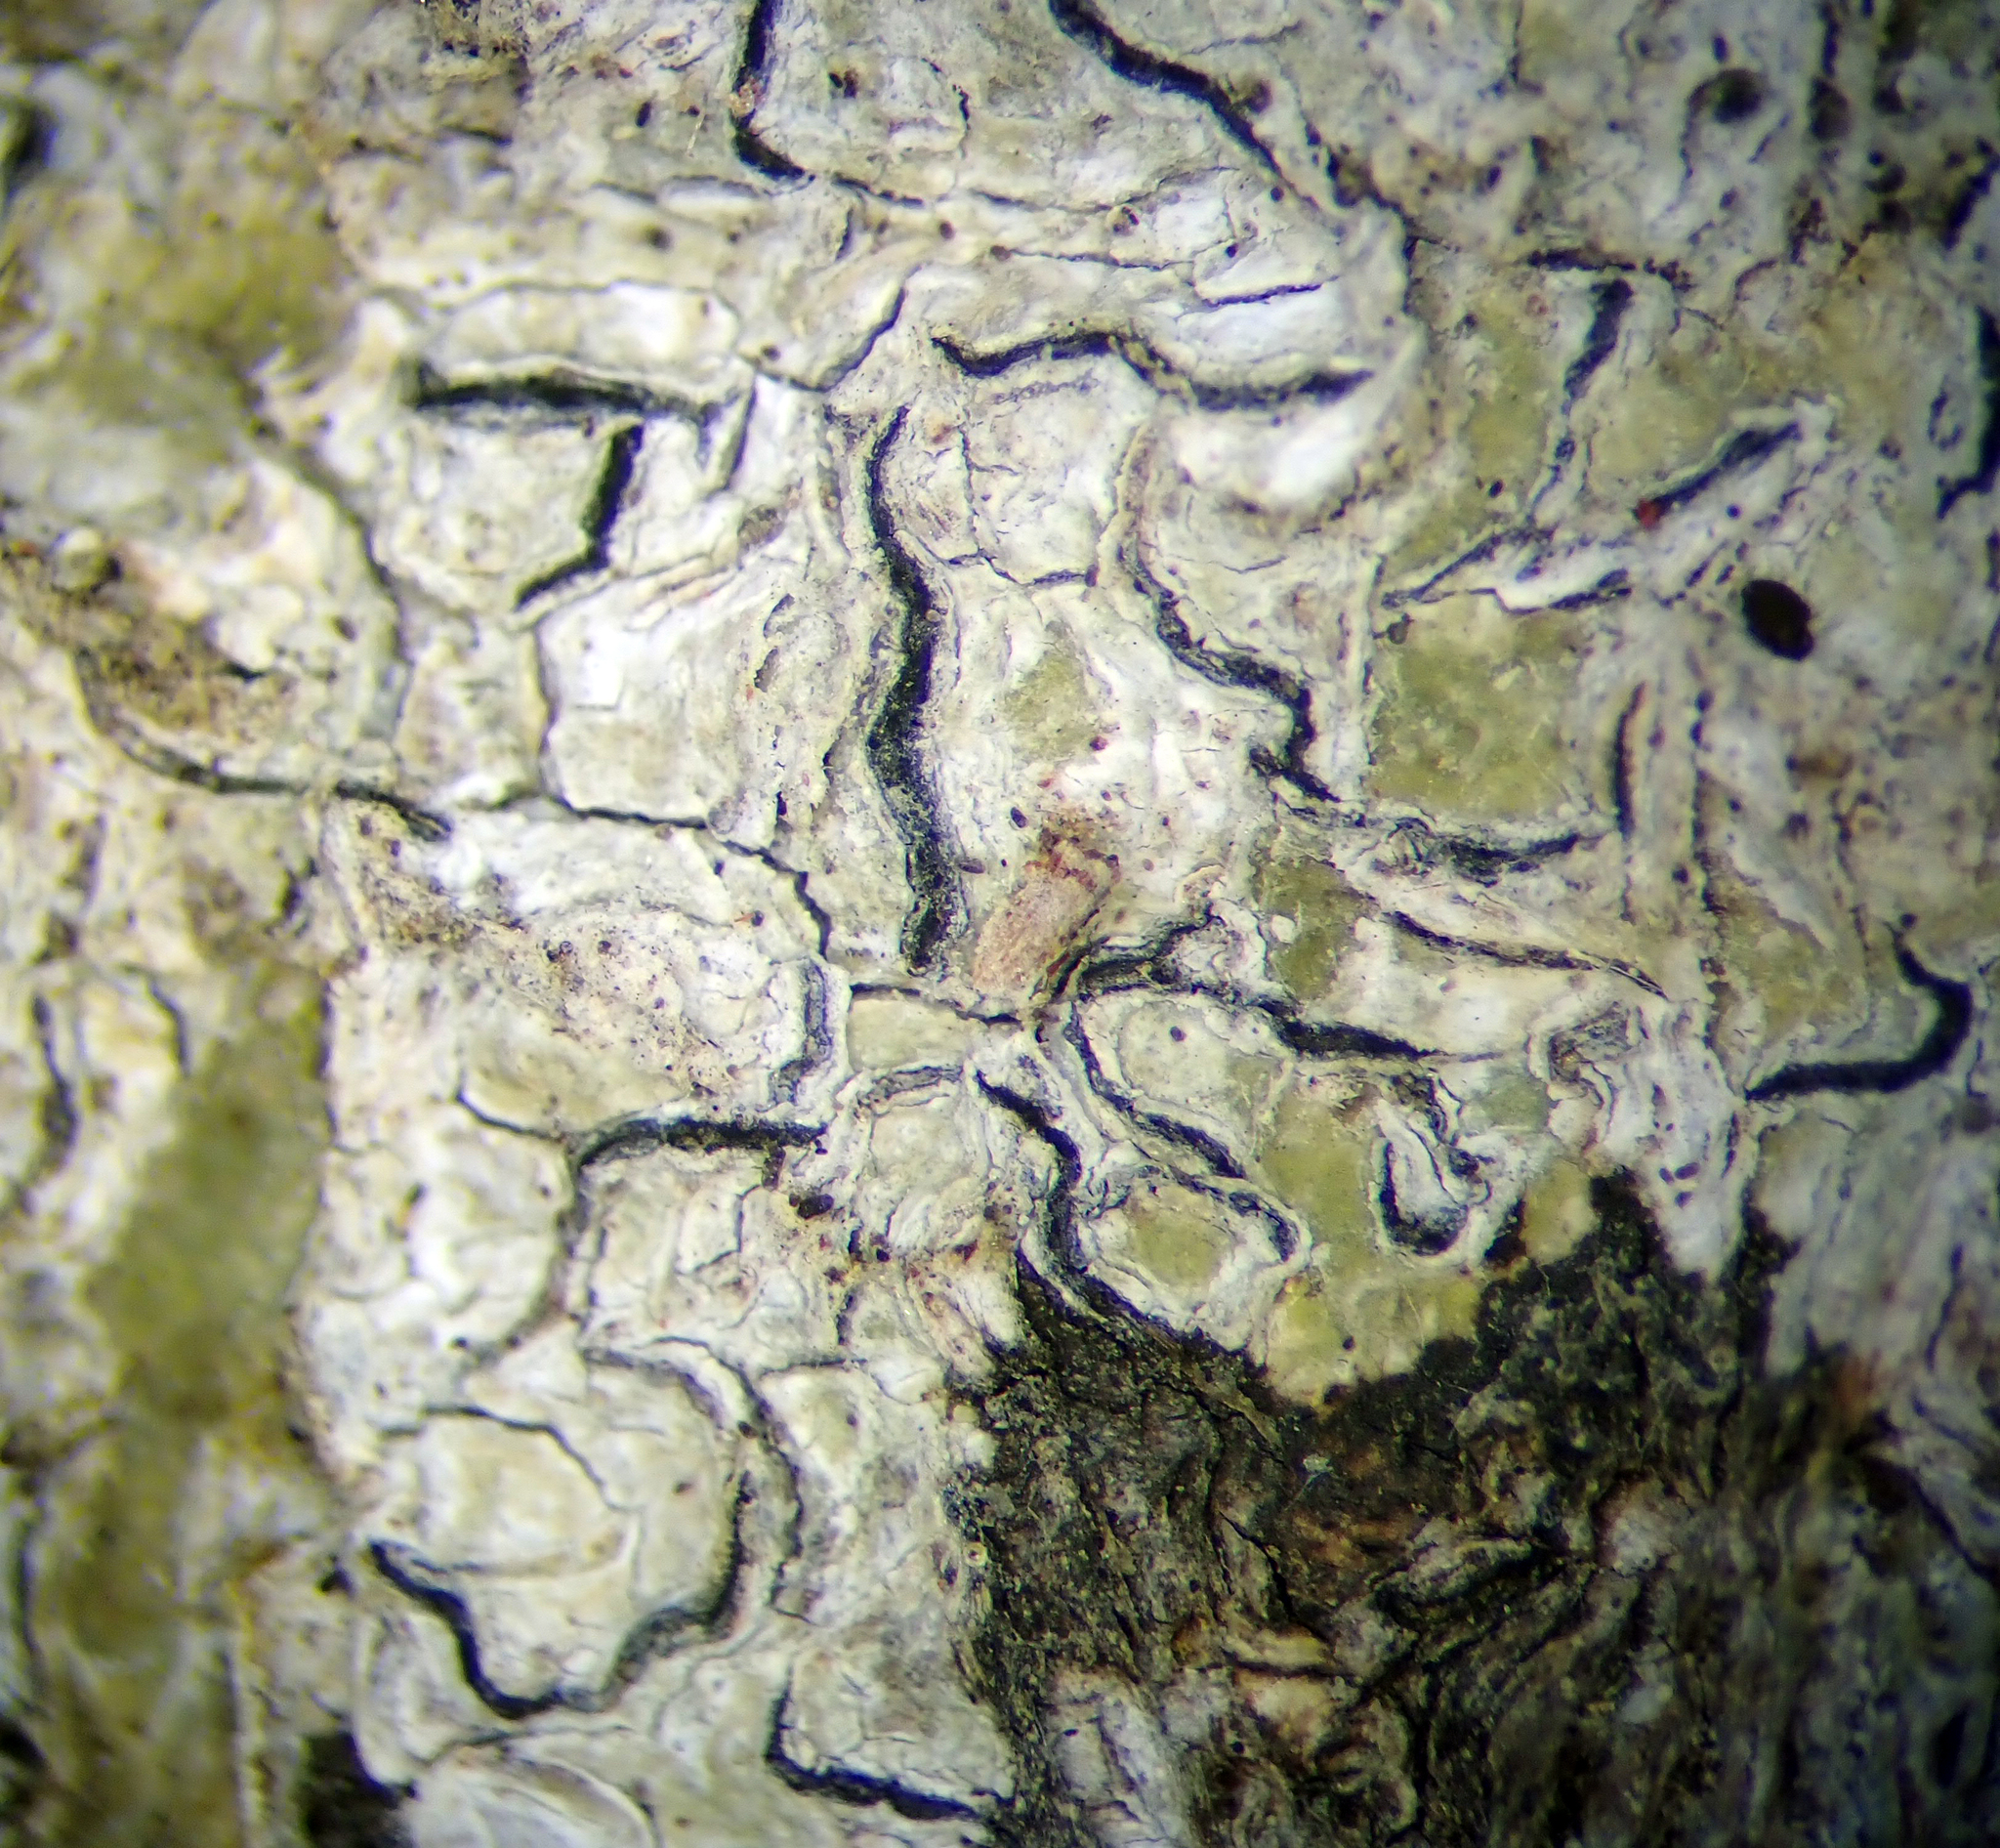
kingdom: Fungi
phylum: Ascomycota
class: Lecanoromycetes
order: Ostropales
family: Graphidaceae
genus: Fissurina
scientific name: Fissurina
